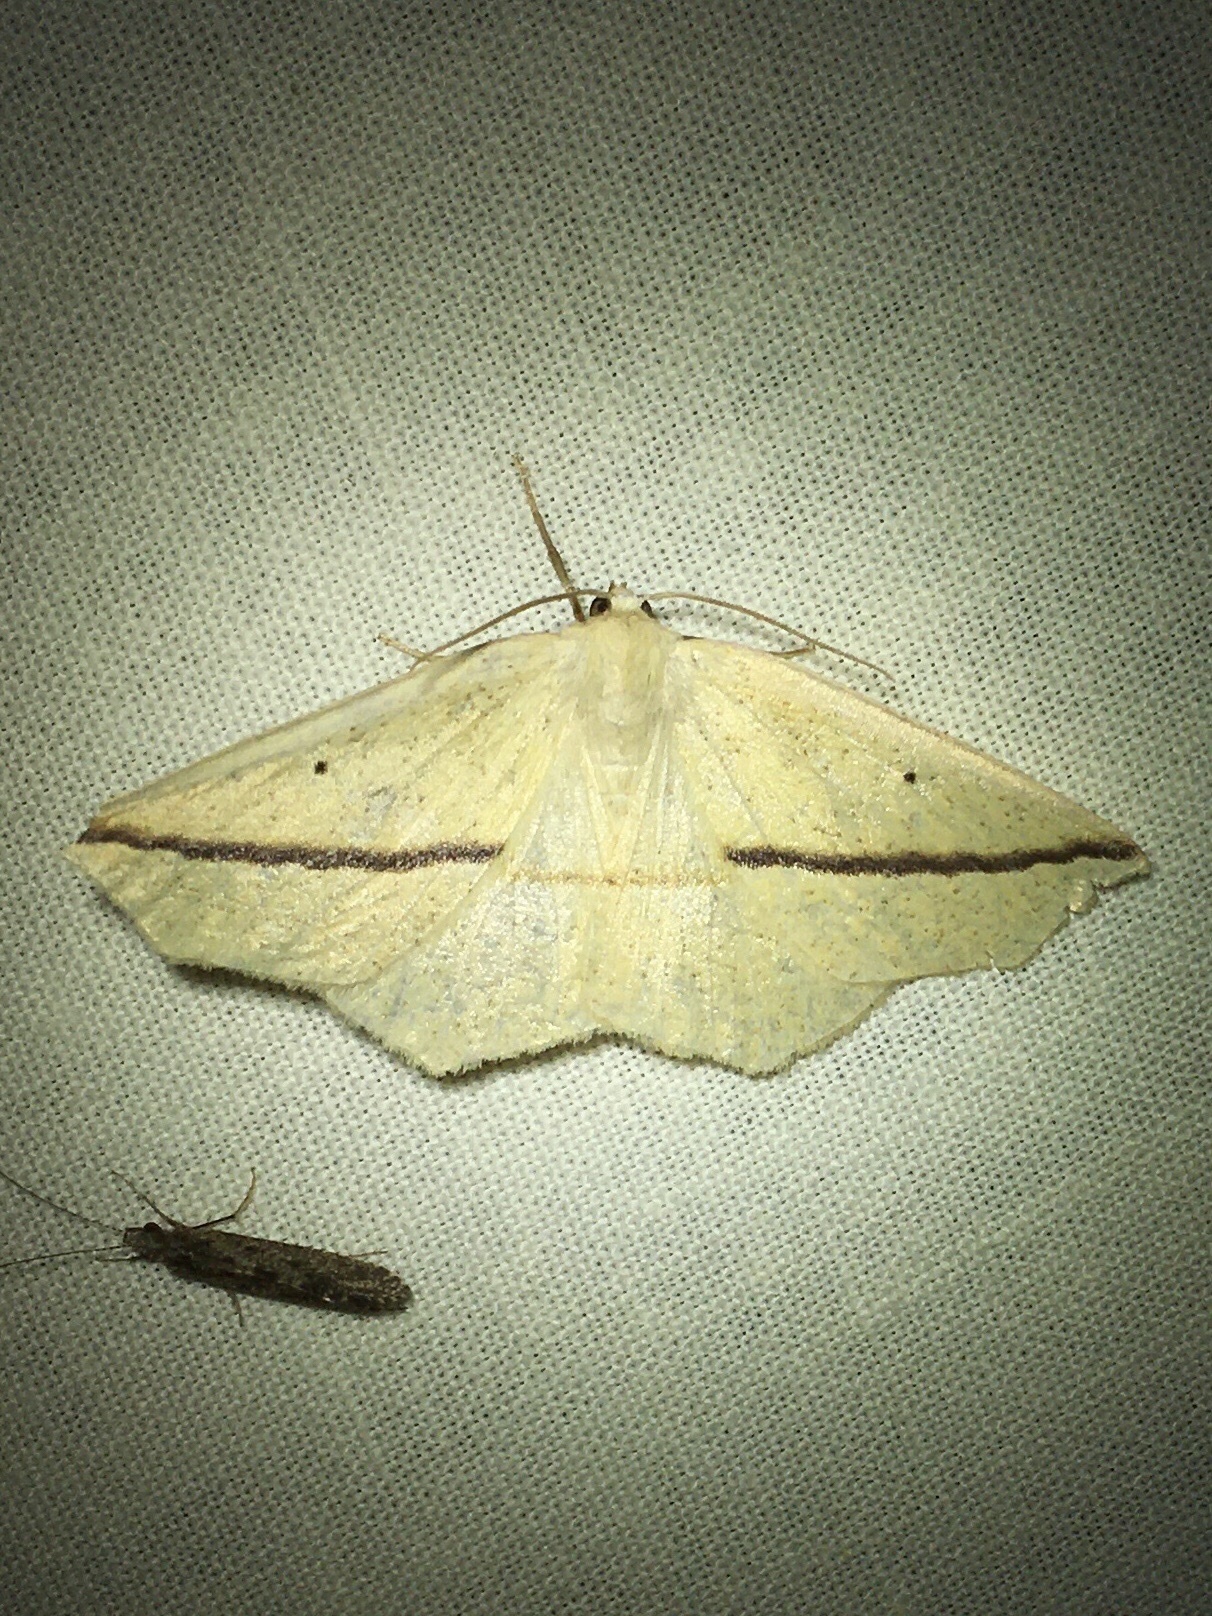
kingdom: Animalia
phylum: Arthropoda
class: Insecta
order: Lepidoptera
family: Geometridae
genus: Tetracis
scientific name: Tetracis crocallata
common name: Yellow slant-line
